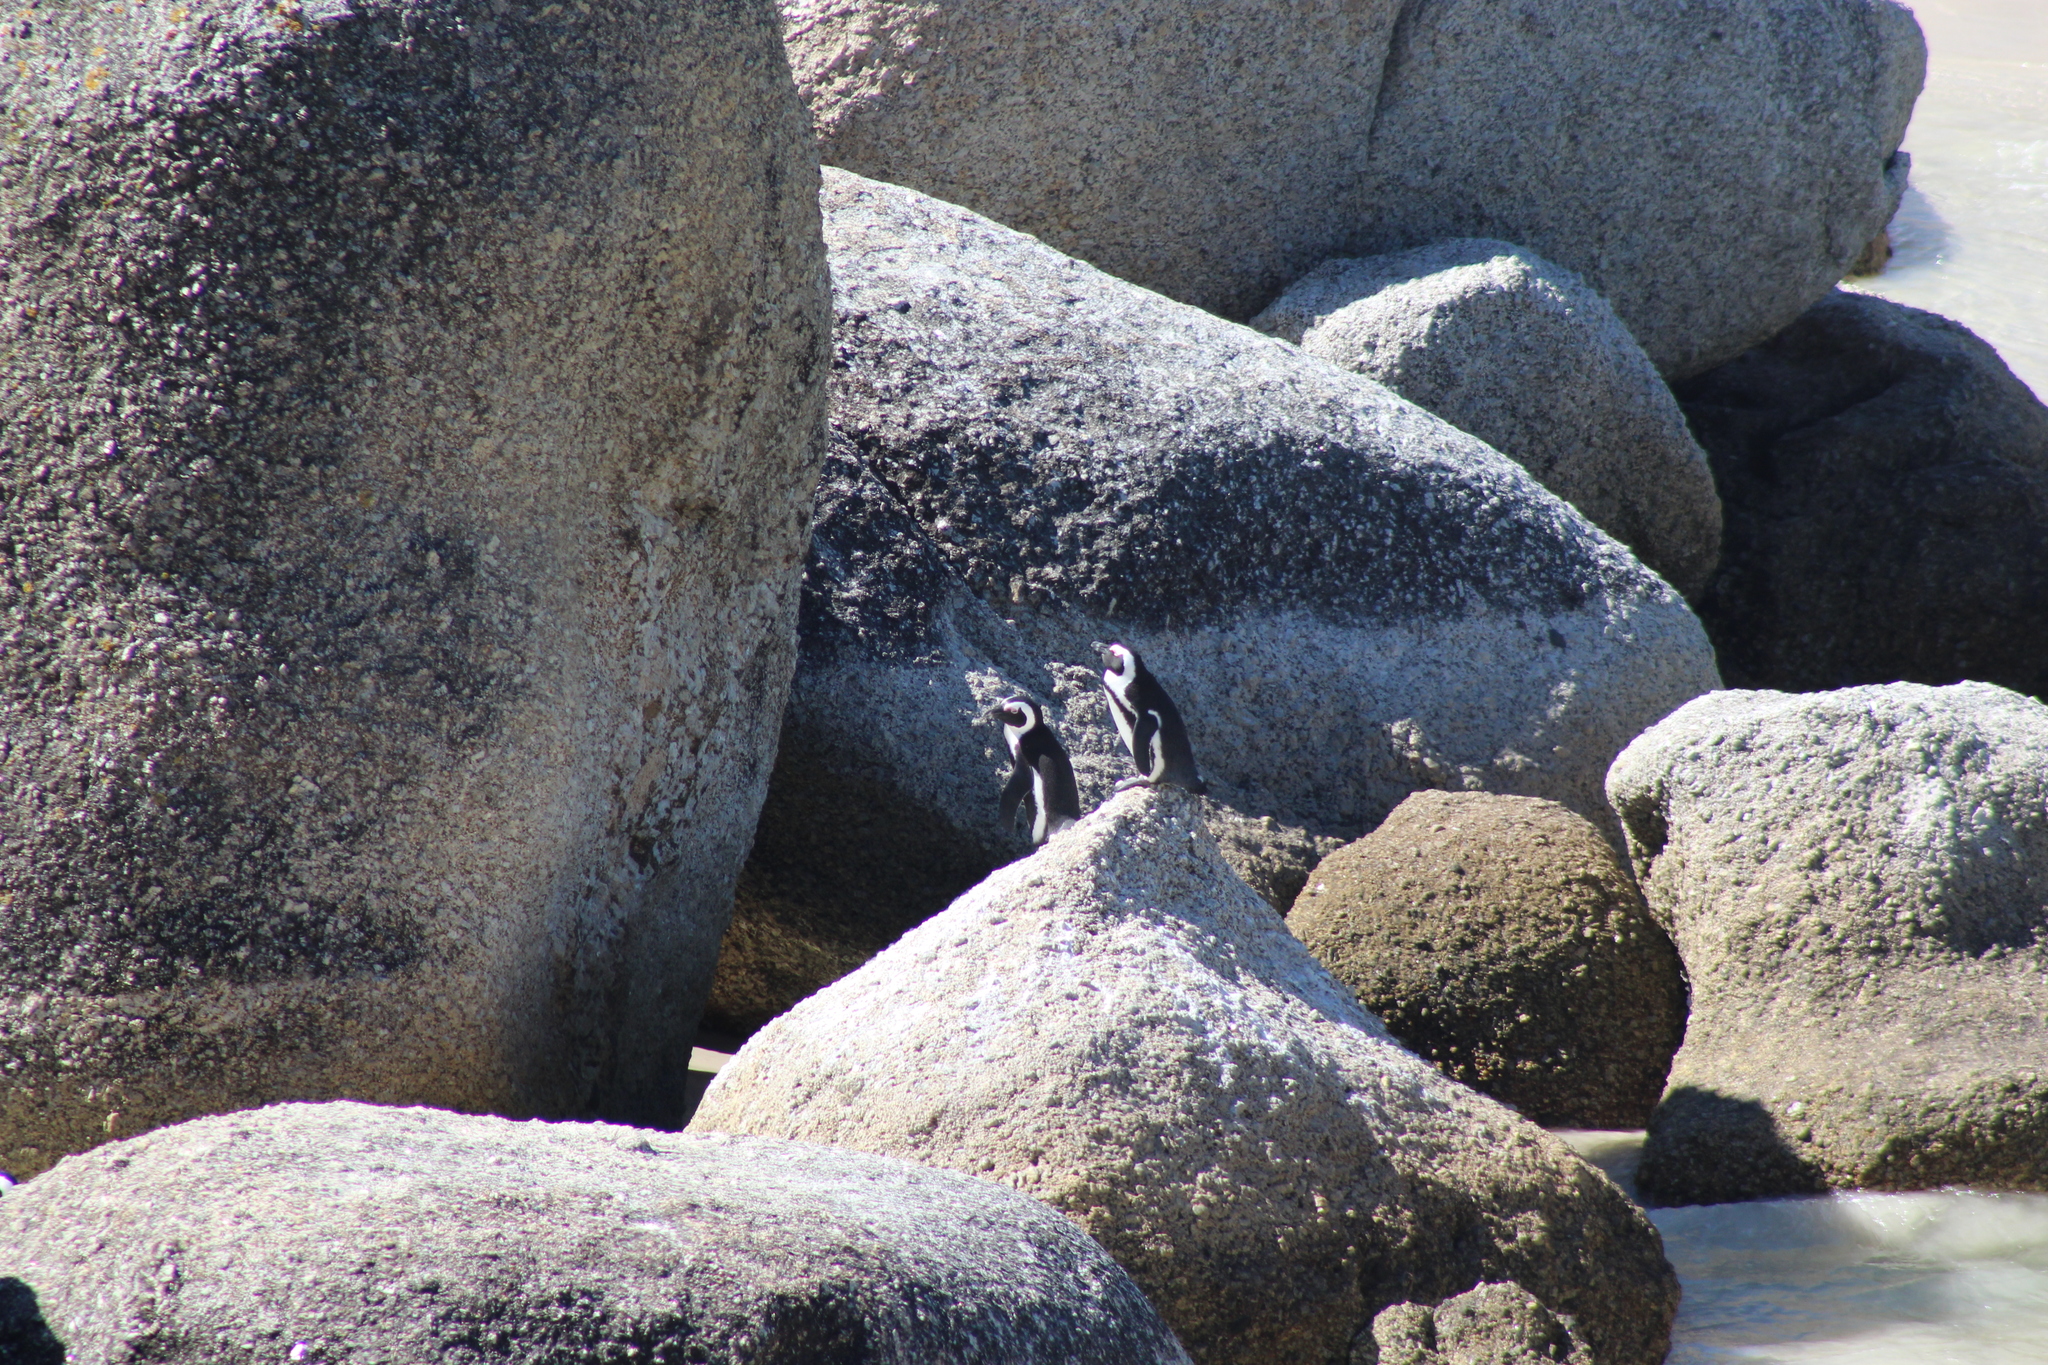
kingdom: Animalia
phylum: Chordata
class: Aves
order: Sphenisciformes
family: Spheniscidae
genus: Spheniscus
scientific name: Spheniscus demersus
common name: African penguin
